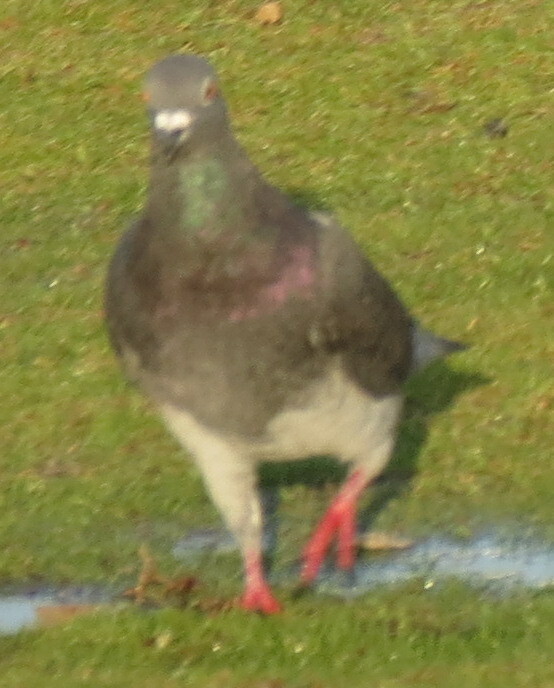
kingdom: Animalia
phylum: Chordata
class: Aves
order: Columbiformes
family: Columbidae
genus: Columba
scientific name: Columba livia
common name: Rock pigeon
